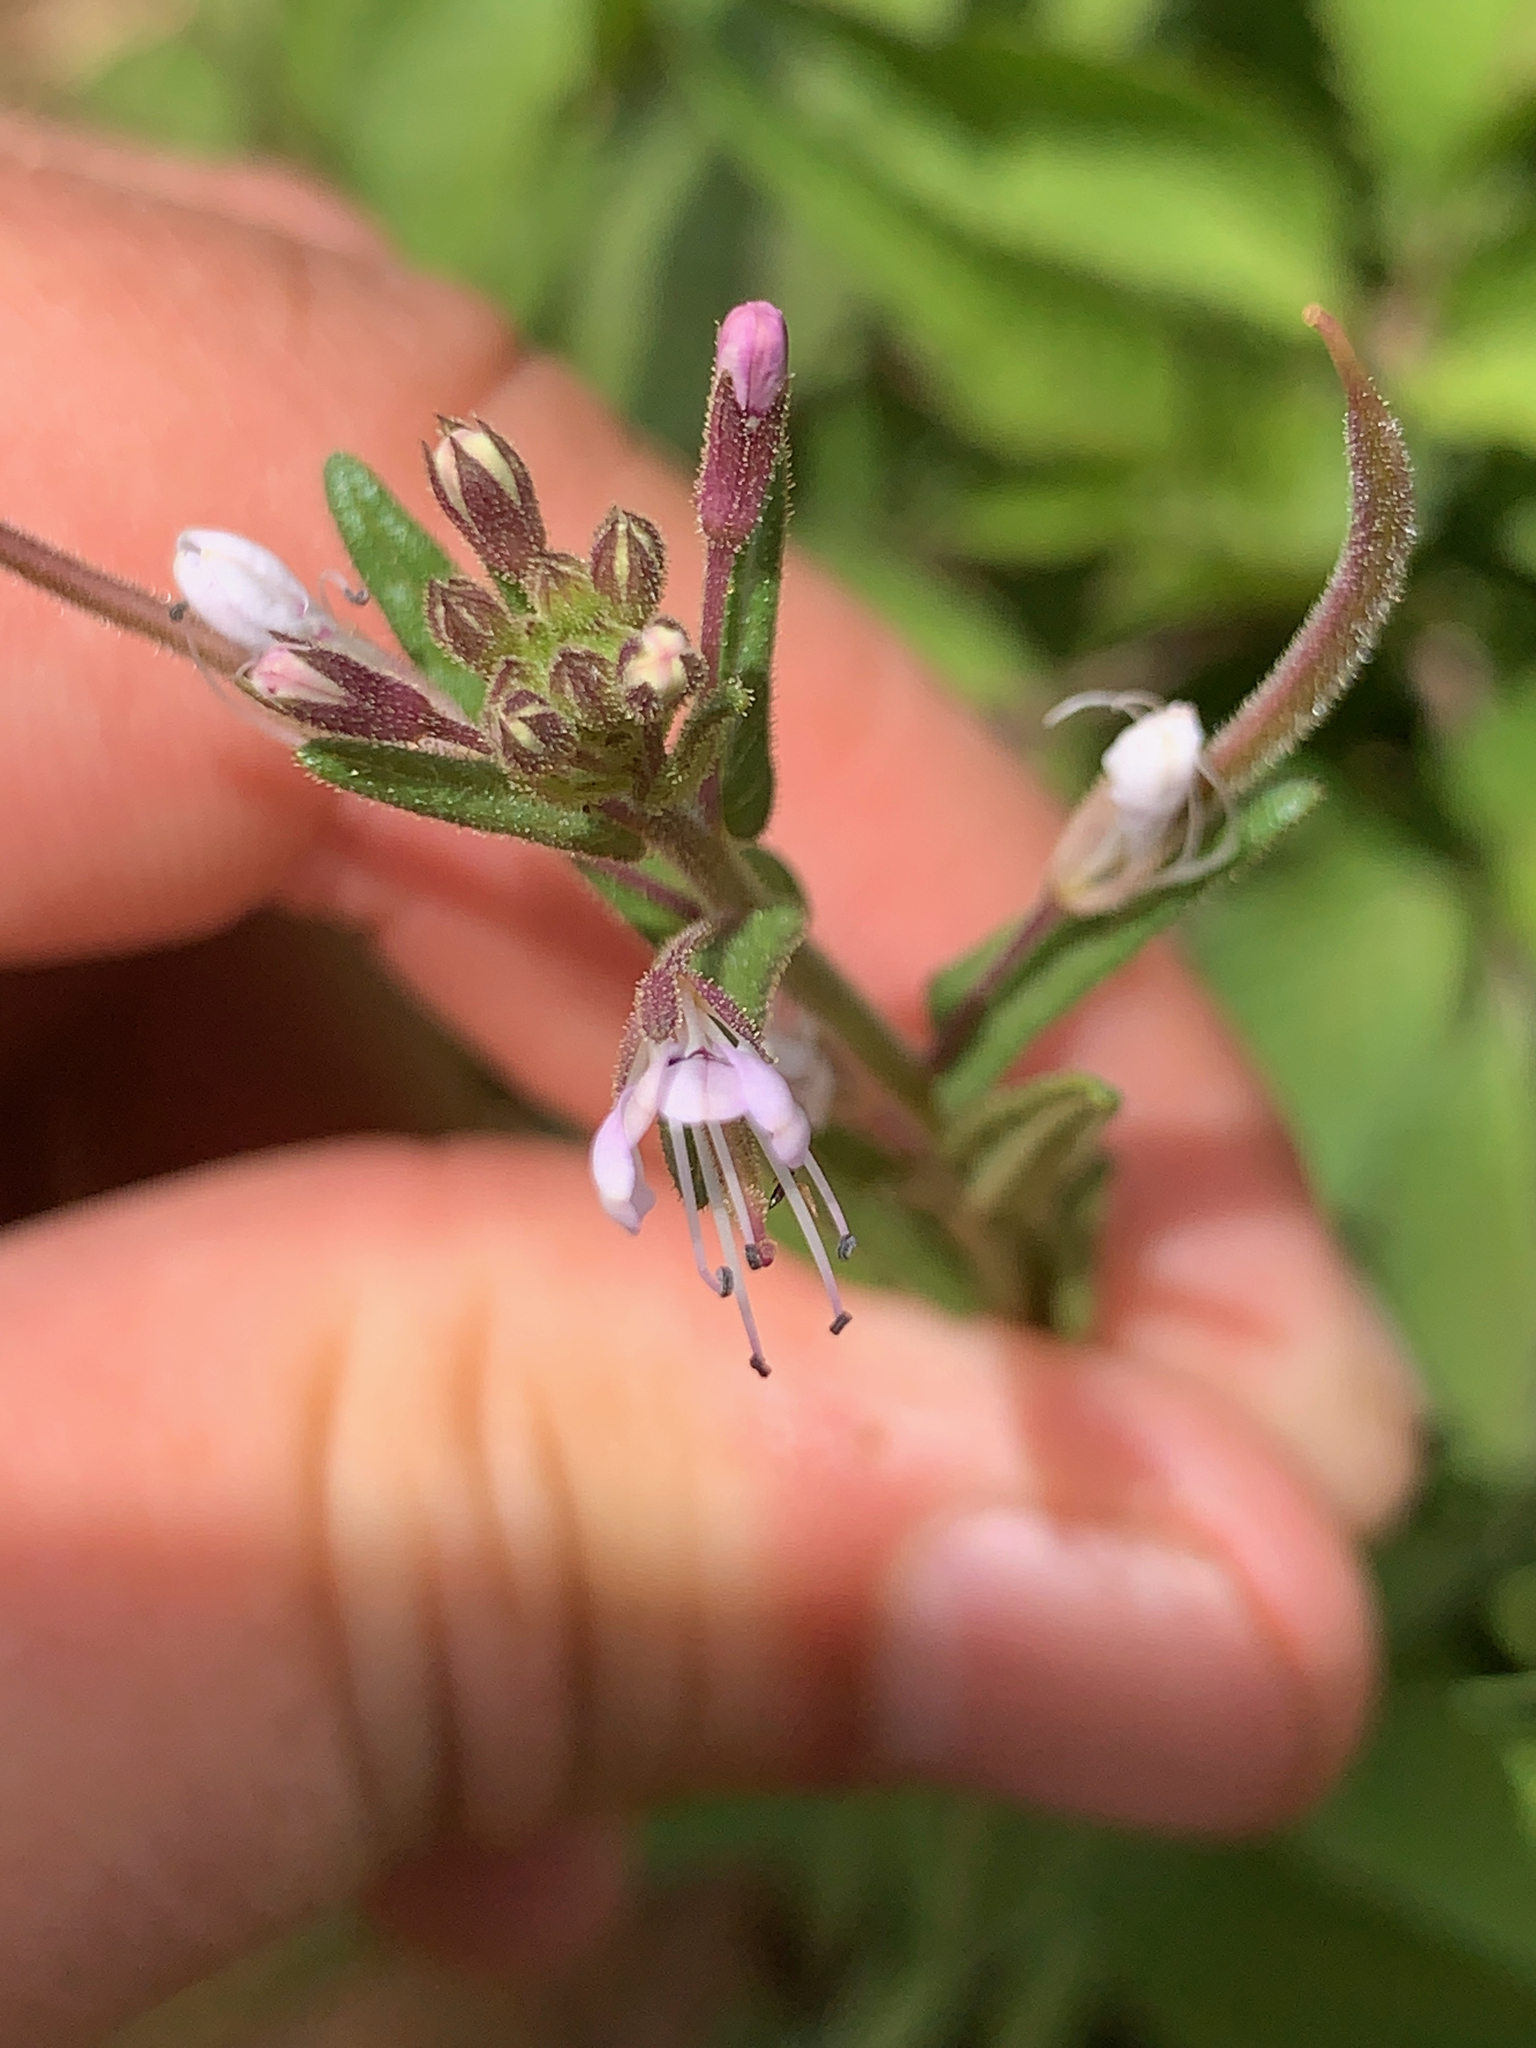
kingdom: Plantae
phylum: Tracheophyta
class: Magnoliopsida
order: Brassicales
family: Cleomaceae
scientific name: Cleomaceae
